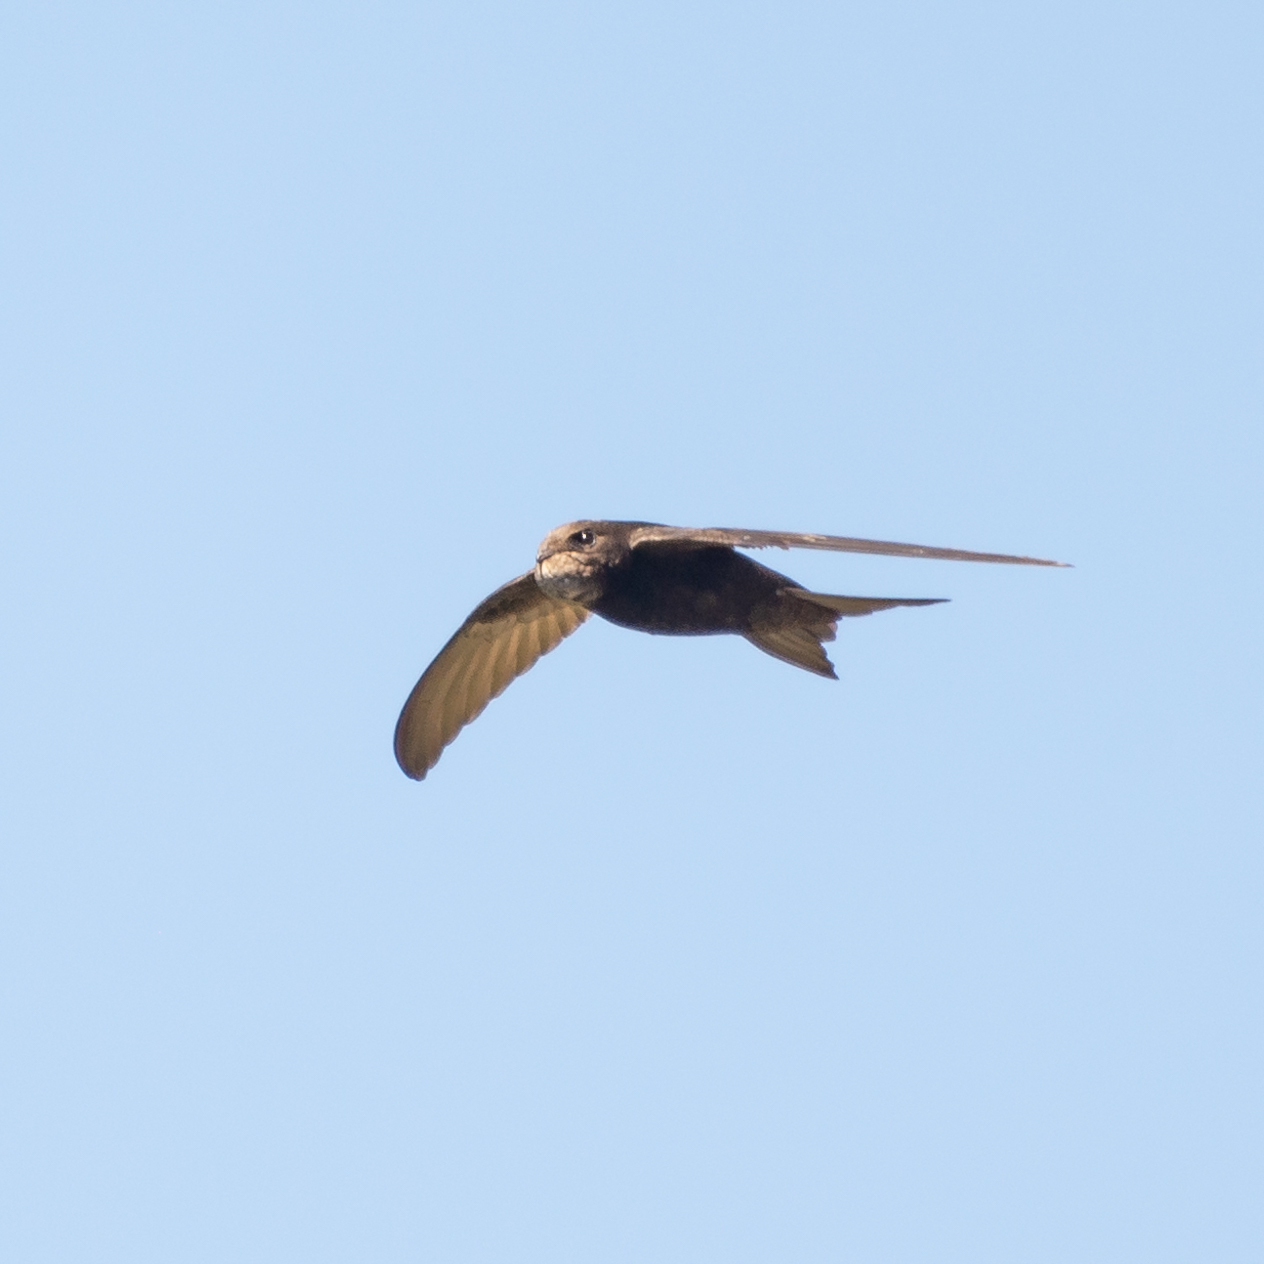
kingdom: Animalia
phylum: Chordata
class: Aves
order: Apodiformes
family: Apodidae
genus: Apus
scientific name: Apus apus
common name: Common swift
